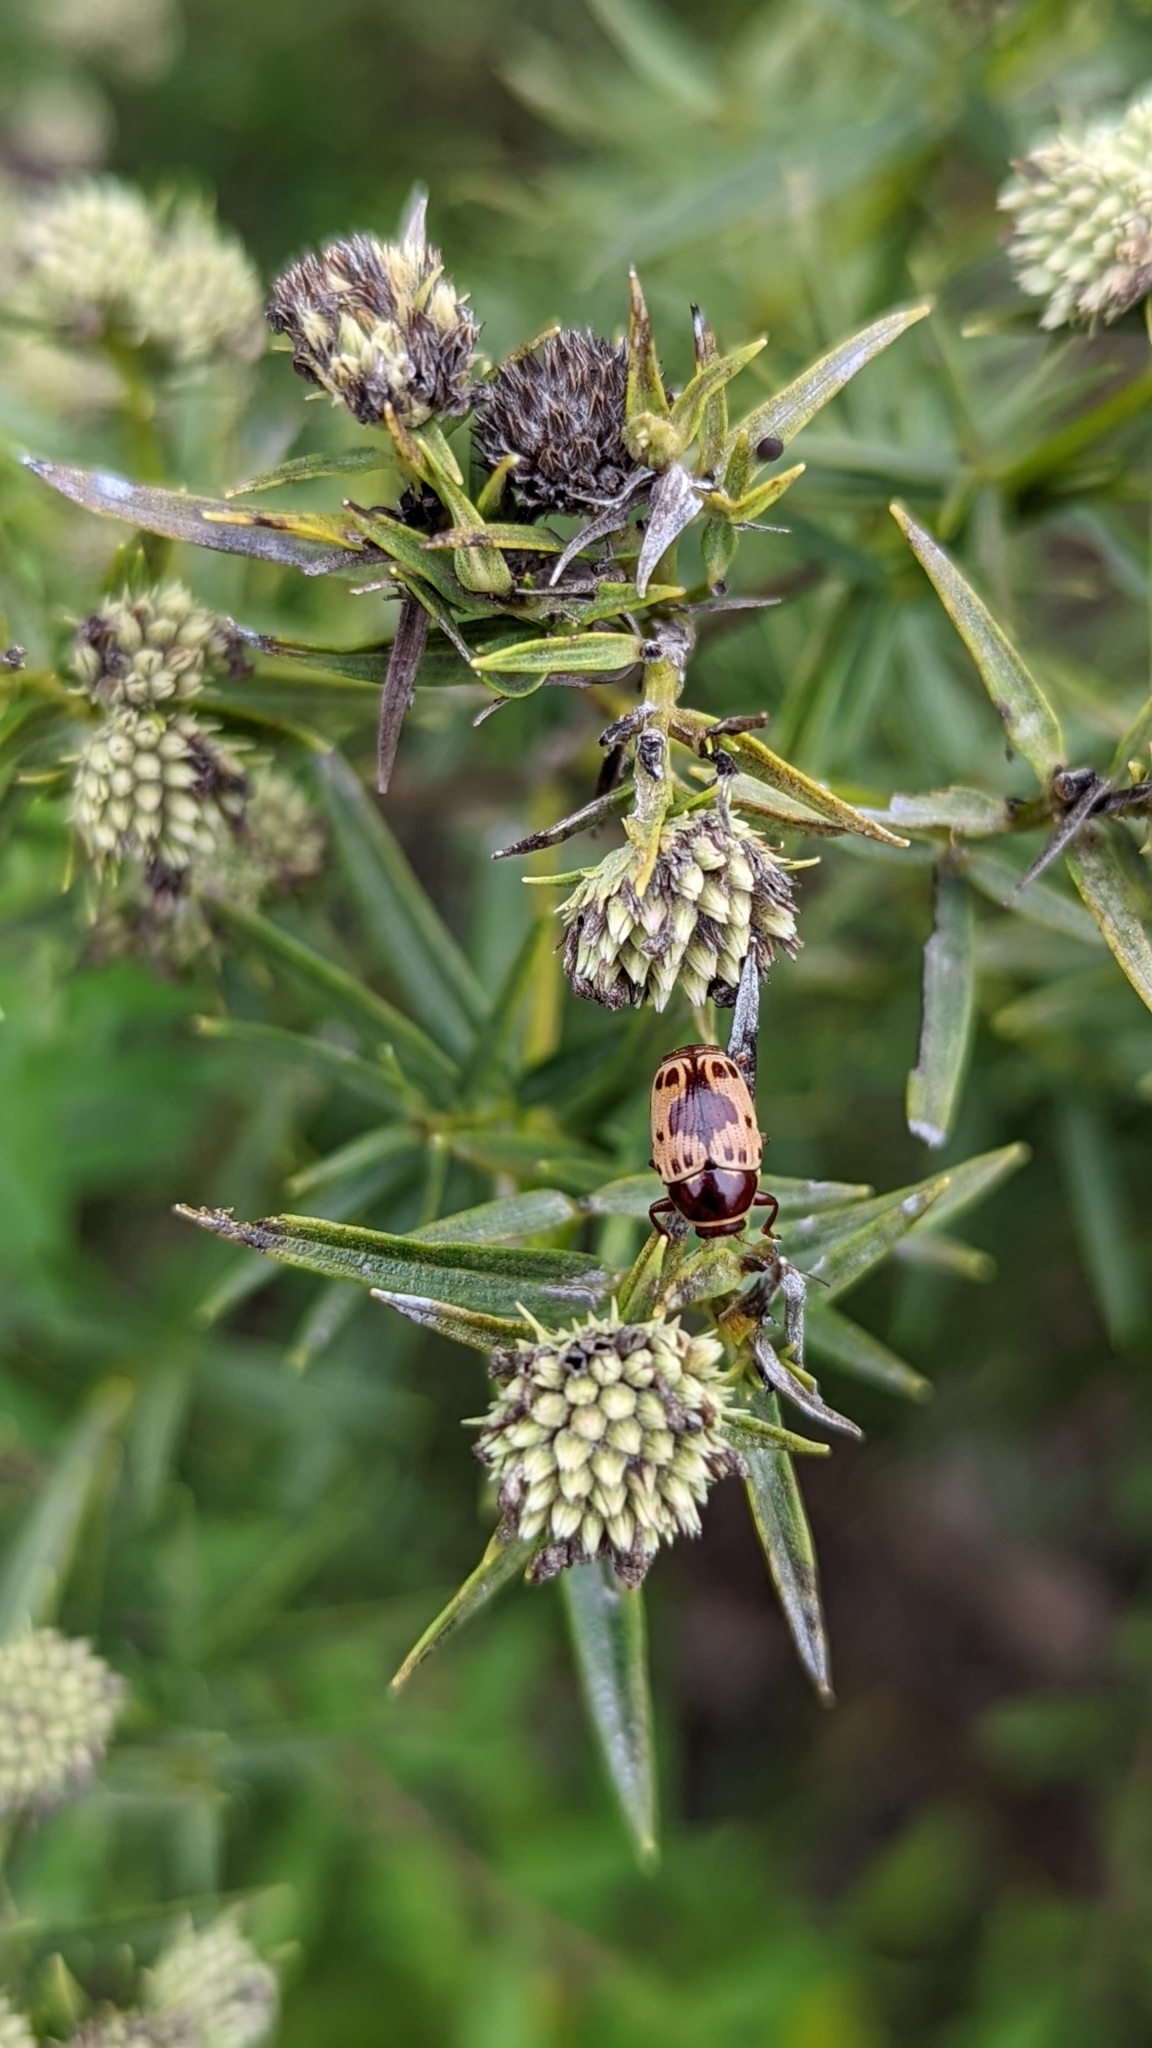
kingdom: Animalia
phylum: Arthropoda
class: Insecta
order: Coleoptera
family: Chrysomelidae
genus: Cryptocephalus
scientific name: Cryptocephalus mutabilis
